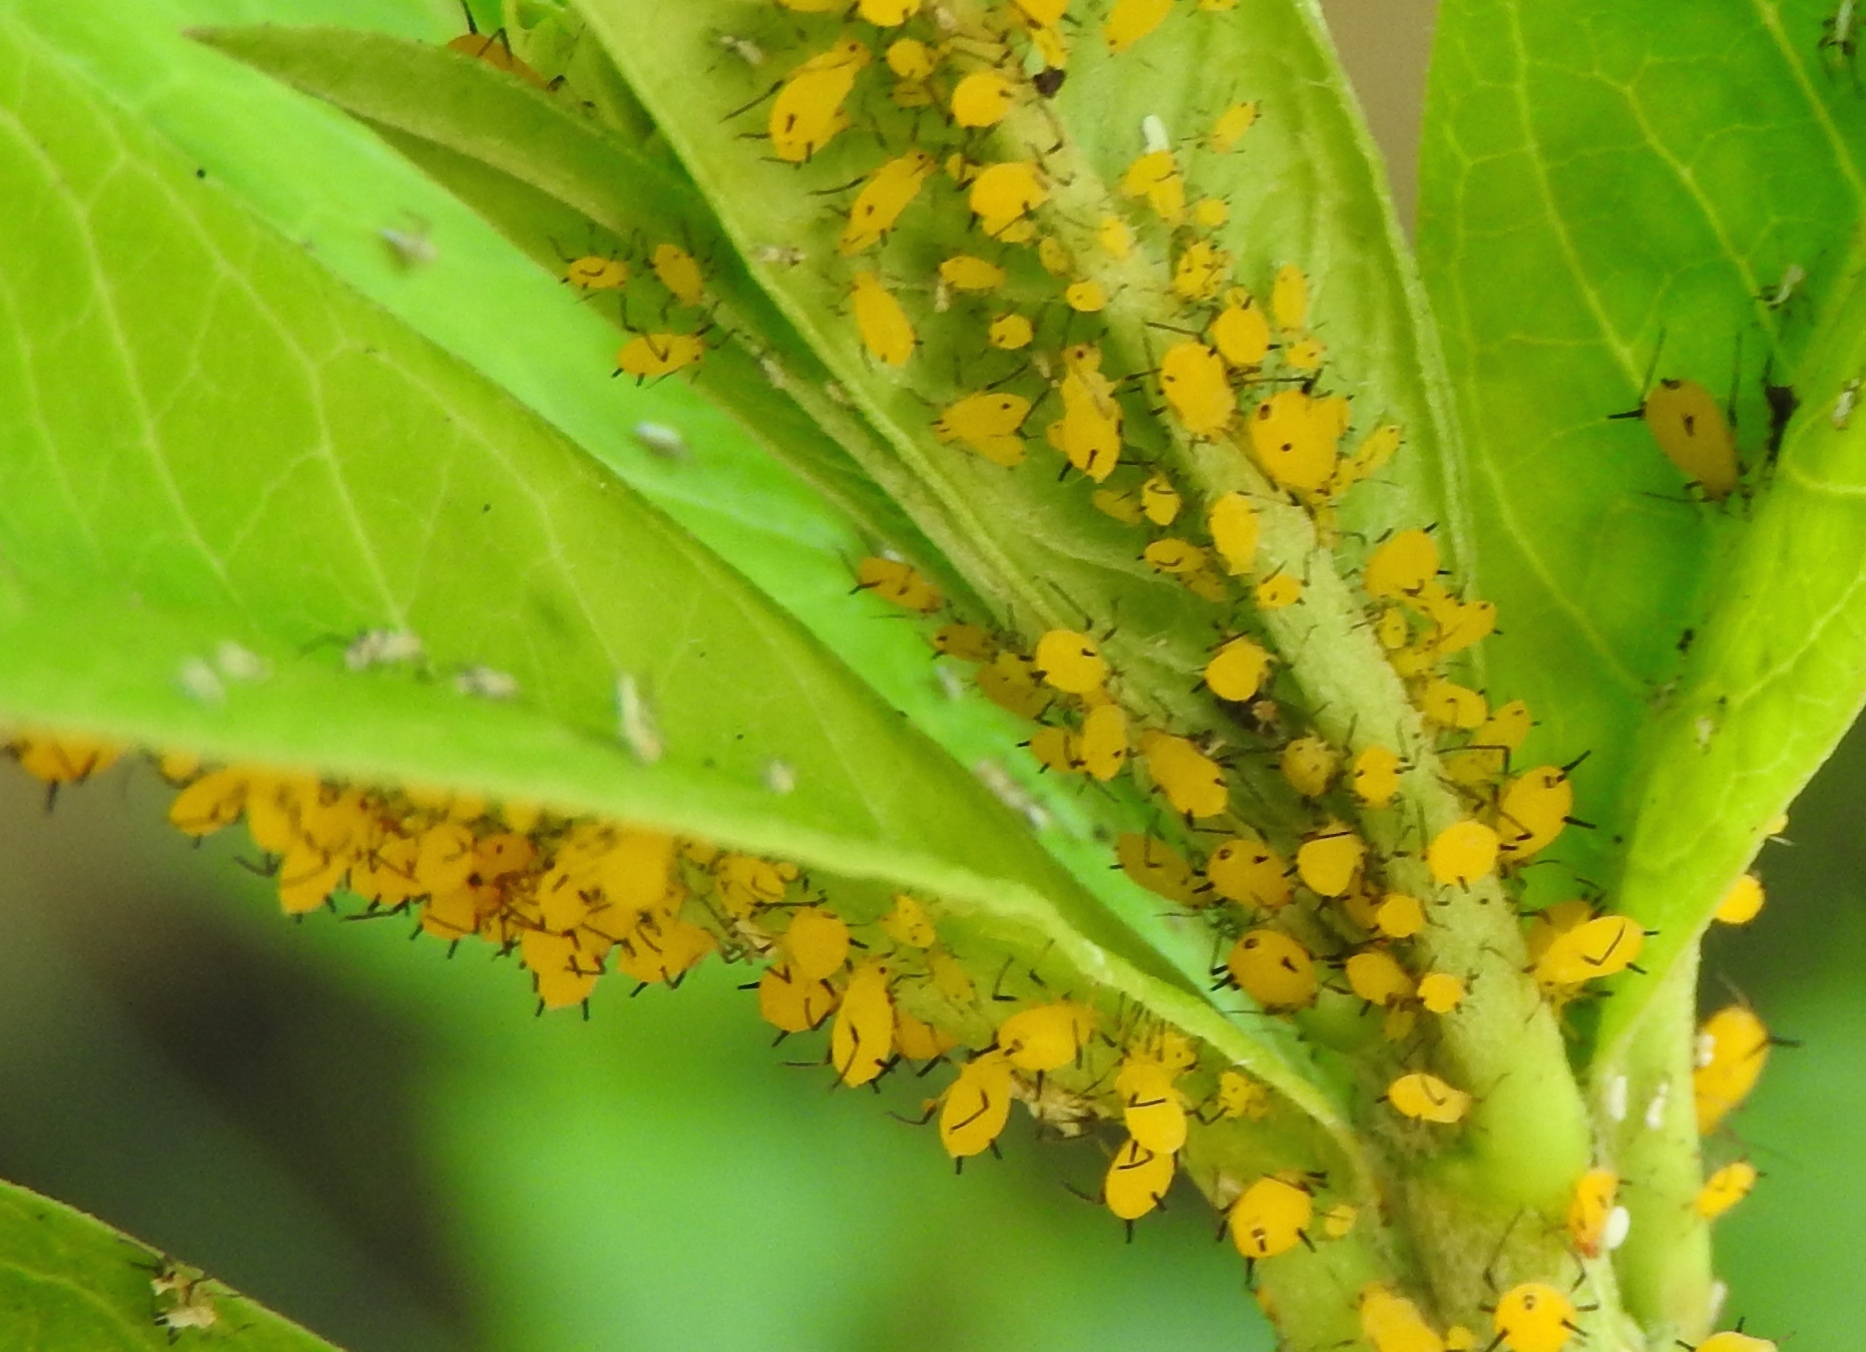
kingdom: Animalia
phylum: Arthropoda
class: Insecta
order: Hemiptera
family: Aphididae
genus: Aphis
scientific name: Aphis nerii
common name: Oleander aphid
